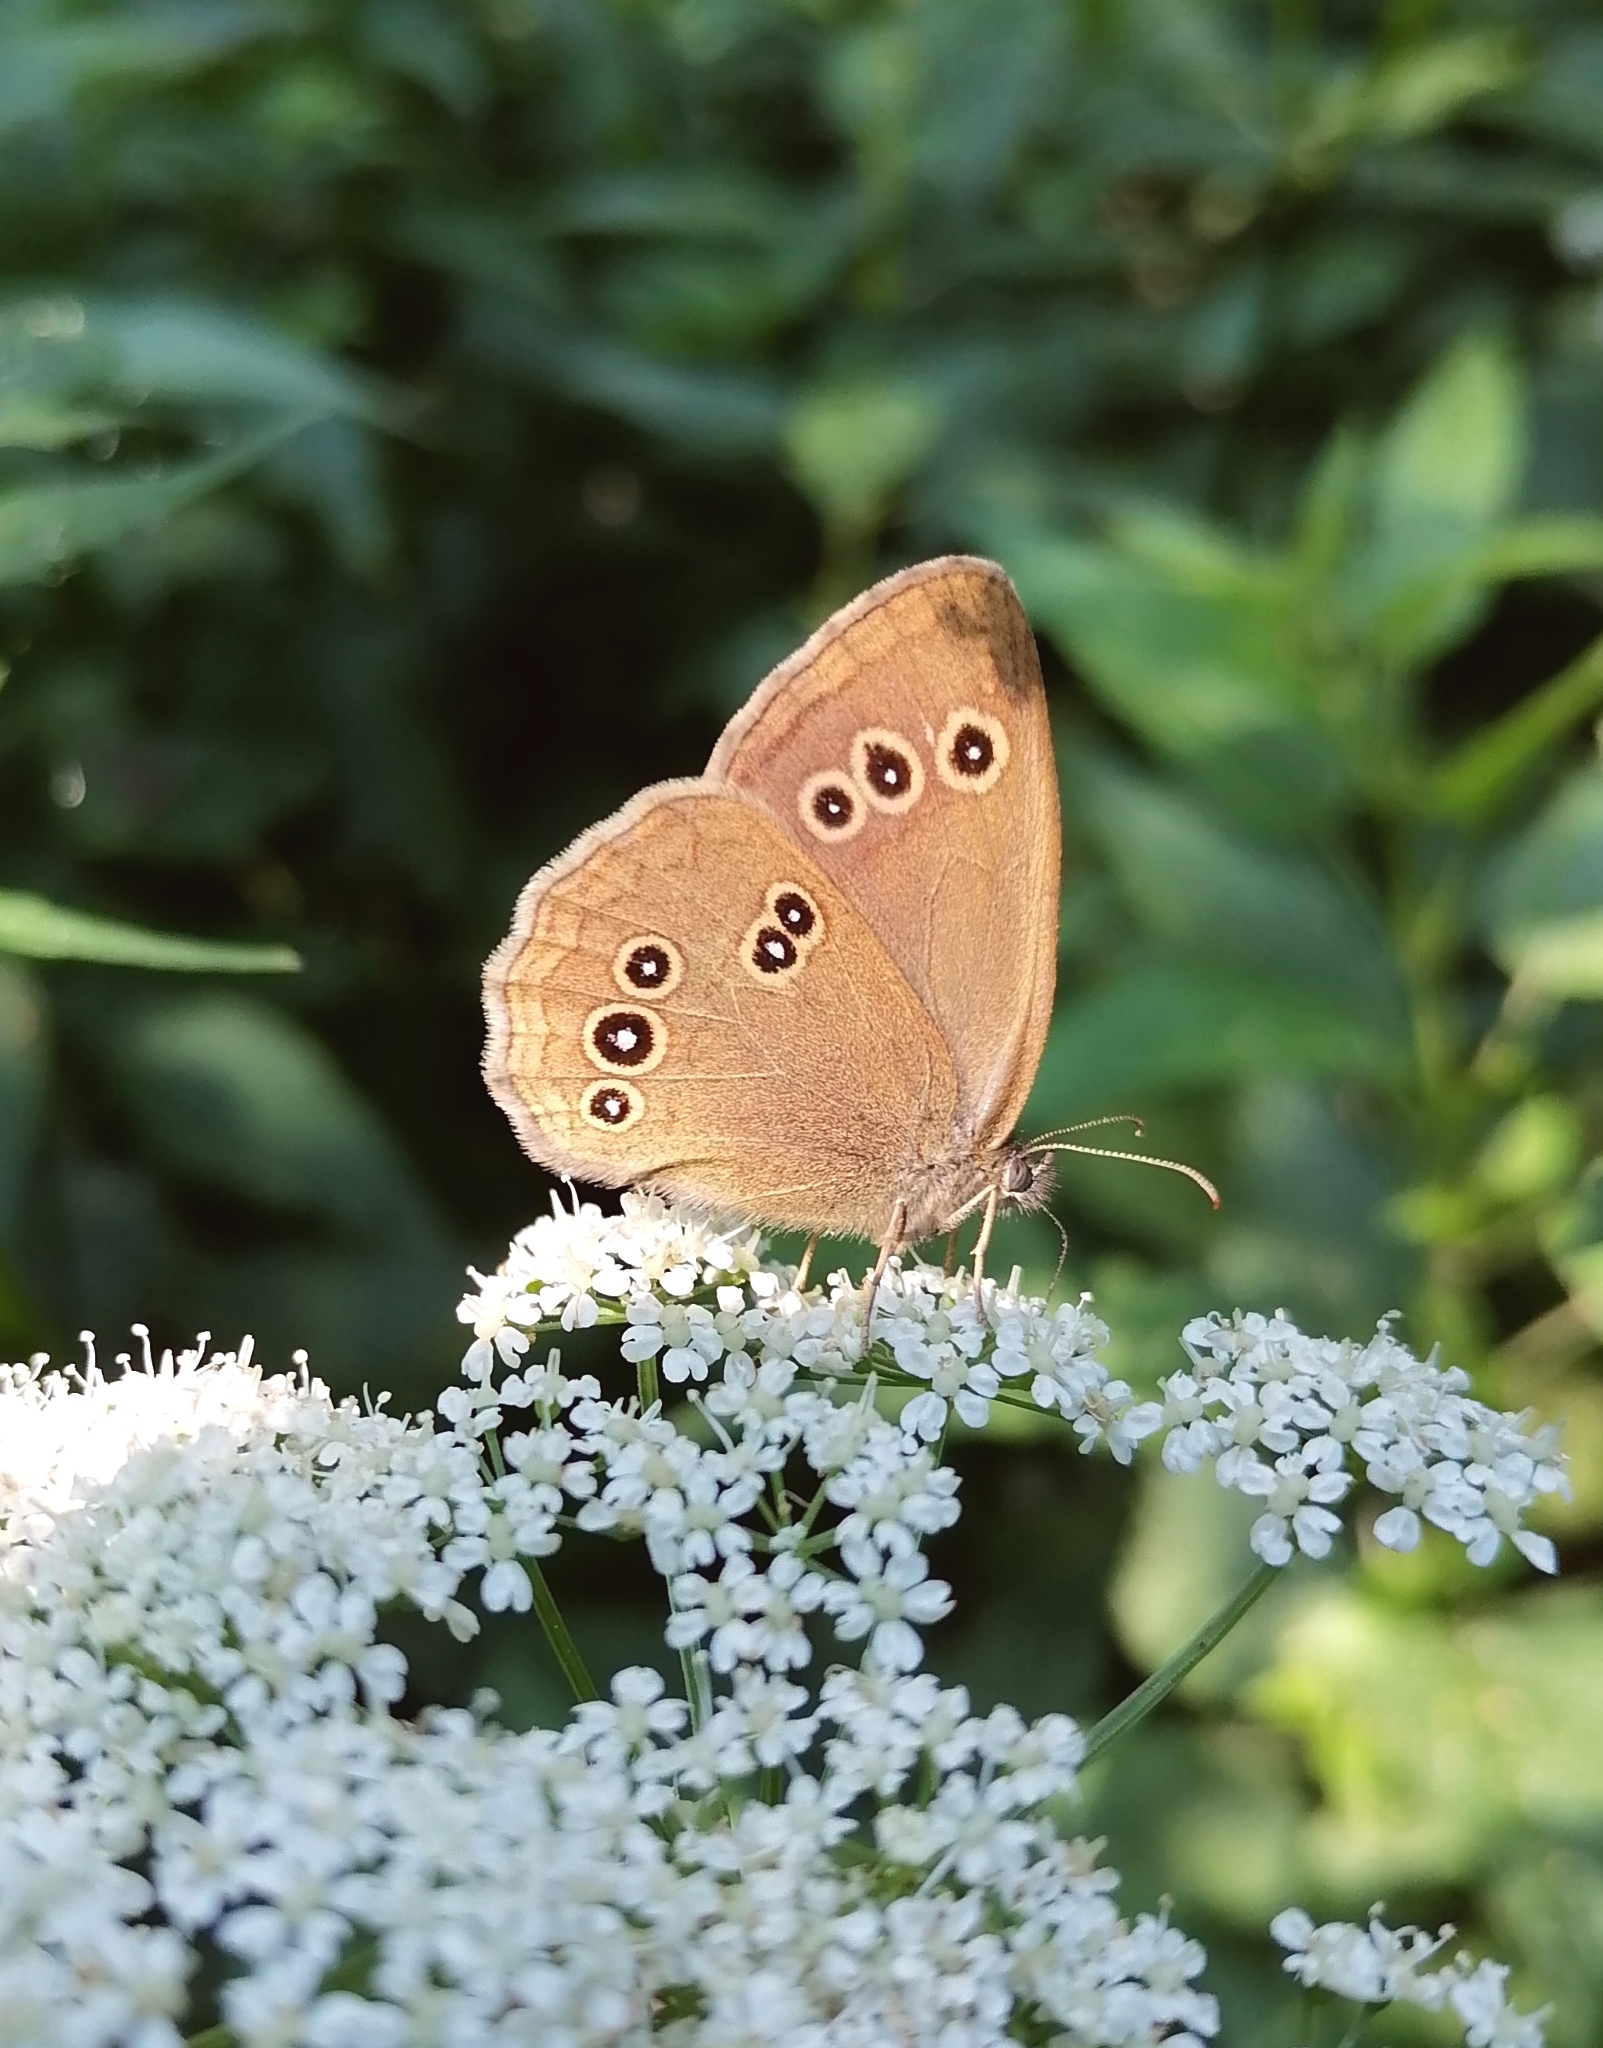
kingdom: Animalia
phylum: Arthropoda
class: Insecta
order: Lepidoptera
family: Nymphalidae
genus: Aphantopus
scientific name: Aphantopus hyperantus
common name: Ringlet
